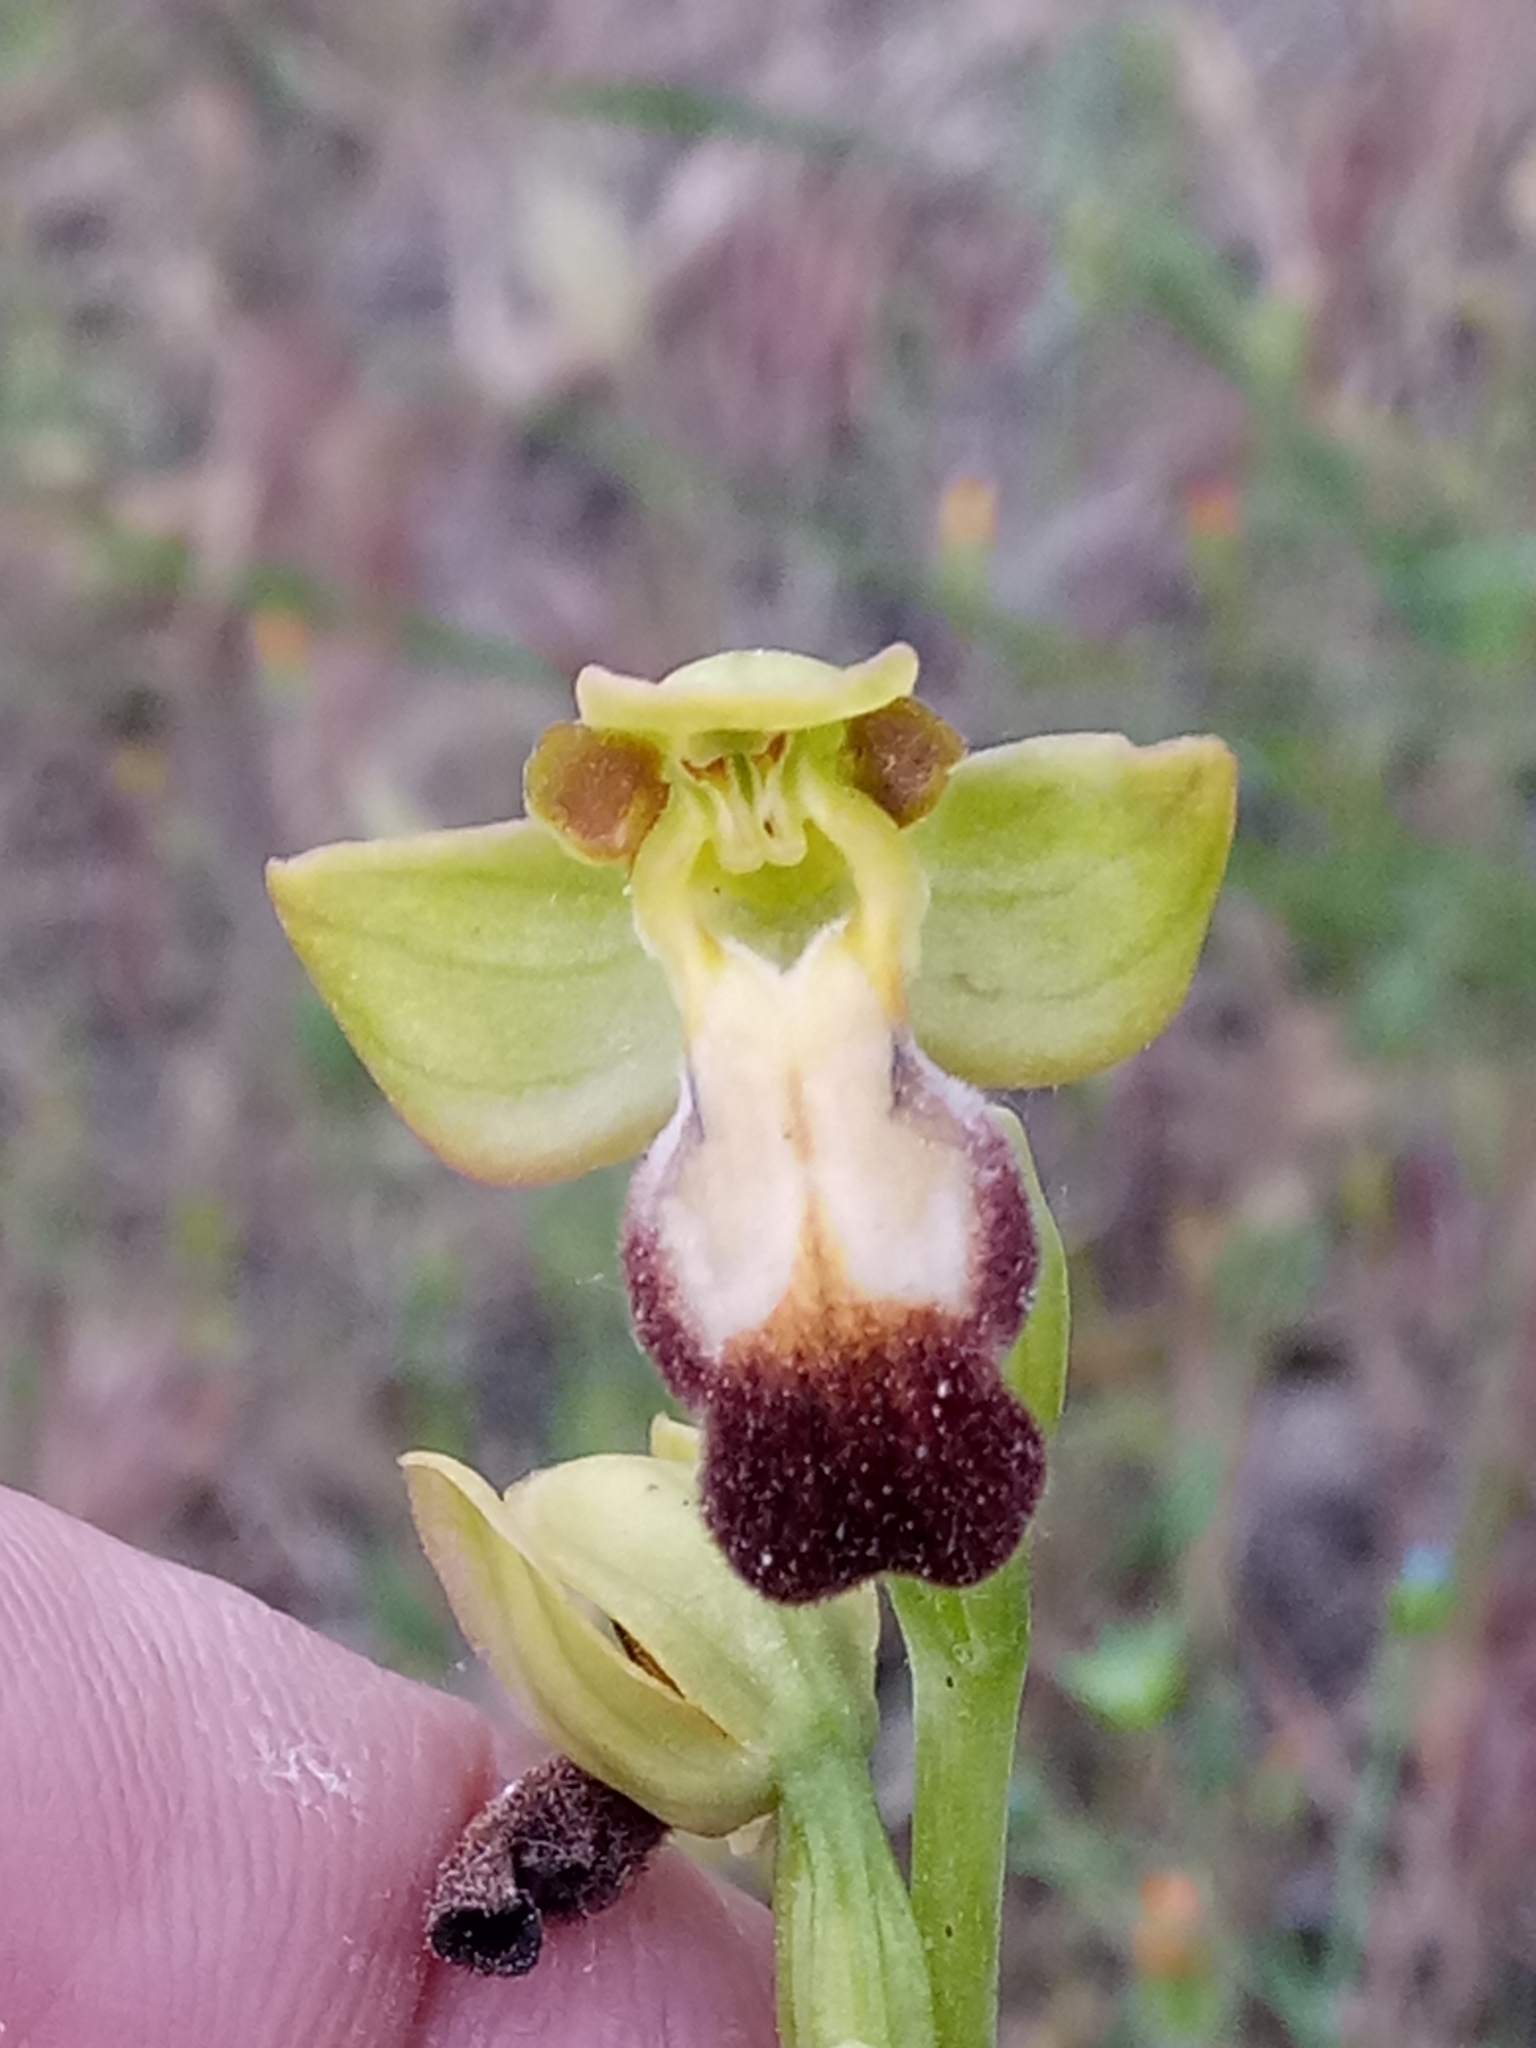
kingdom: Plantae
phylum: Tracheophyta
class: Liliopsida
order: Asparagales
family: Orchidaceae
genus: Ophrys
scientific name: Ophrys fusca
